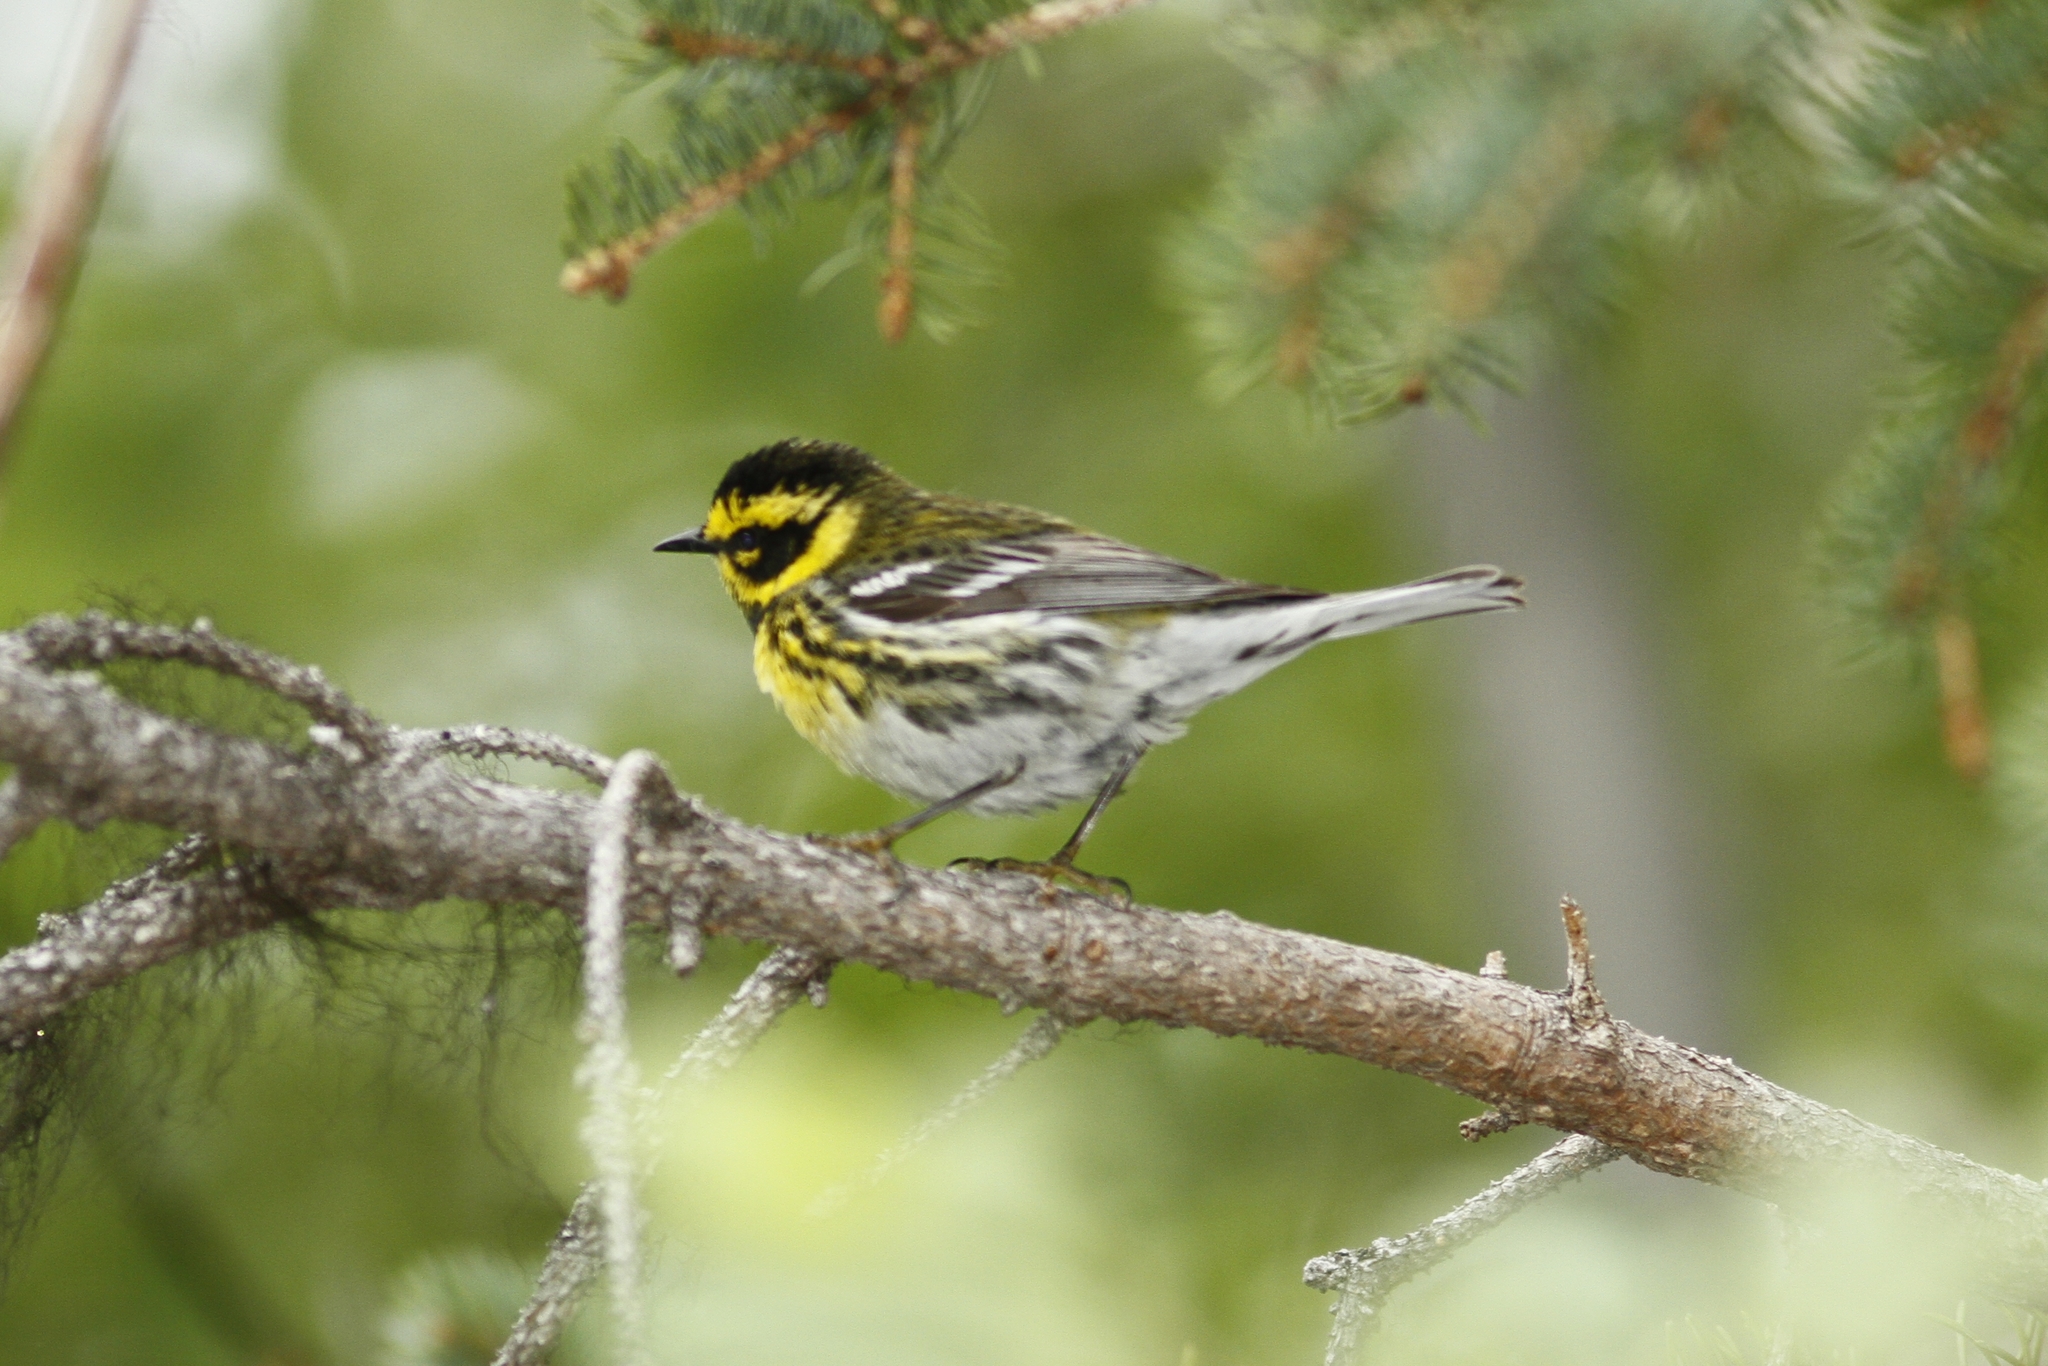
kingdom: Animalia
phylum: Chordata
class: Aves
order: Passeriformes
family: Parulidae
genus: Setophaga
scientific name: Setophaga townsendi
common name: Townsend's warbler
